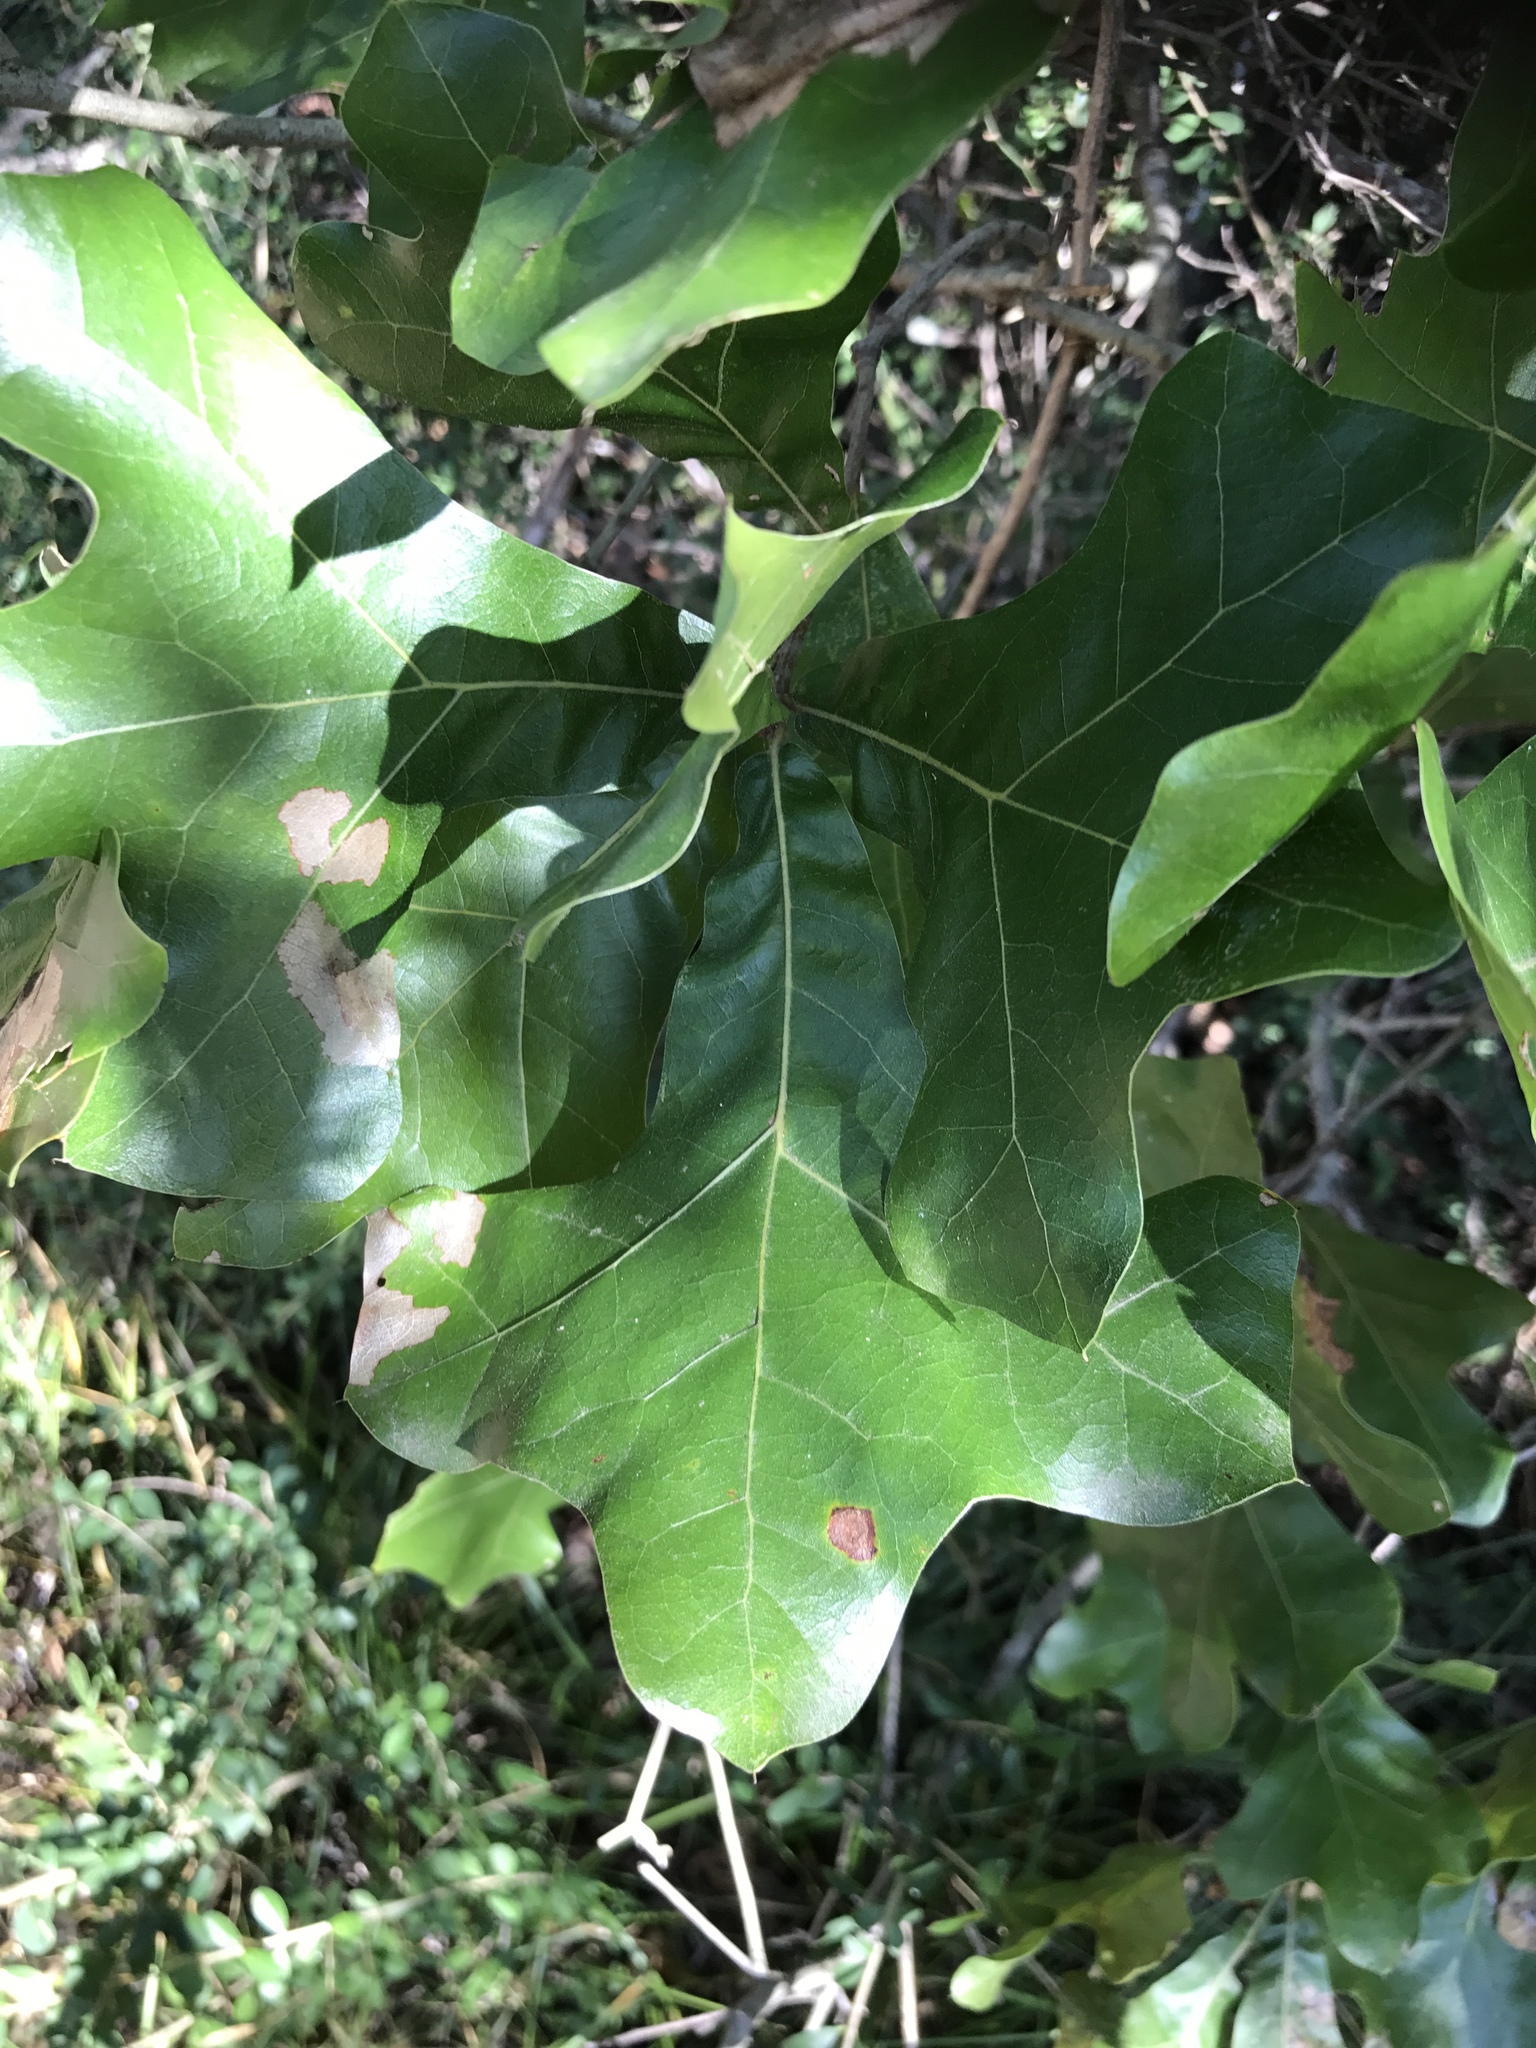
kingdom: Plantae
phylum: Tracheophyta
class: Magnoliopsida
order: Fagales
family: Fagaceae
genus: Quercus
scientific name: Quercus marilandica
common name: Blackjack oak
